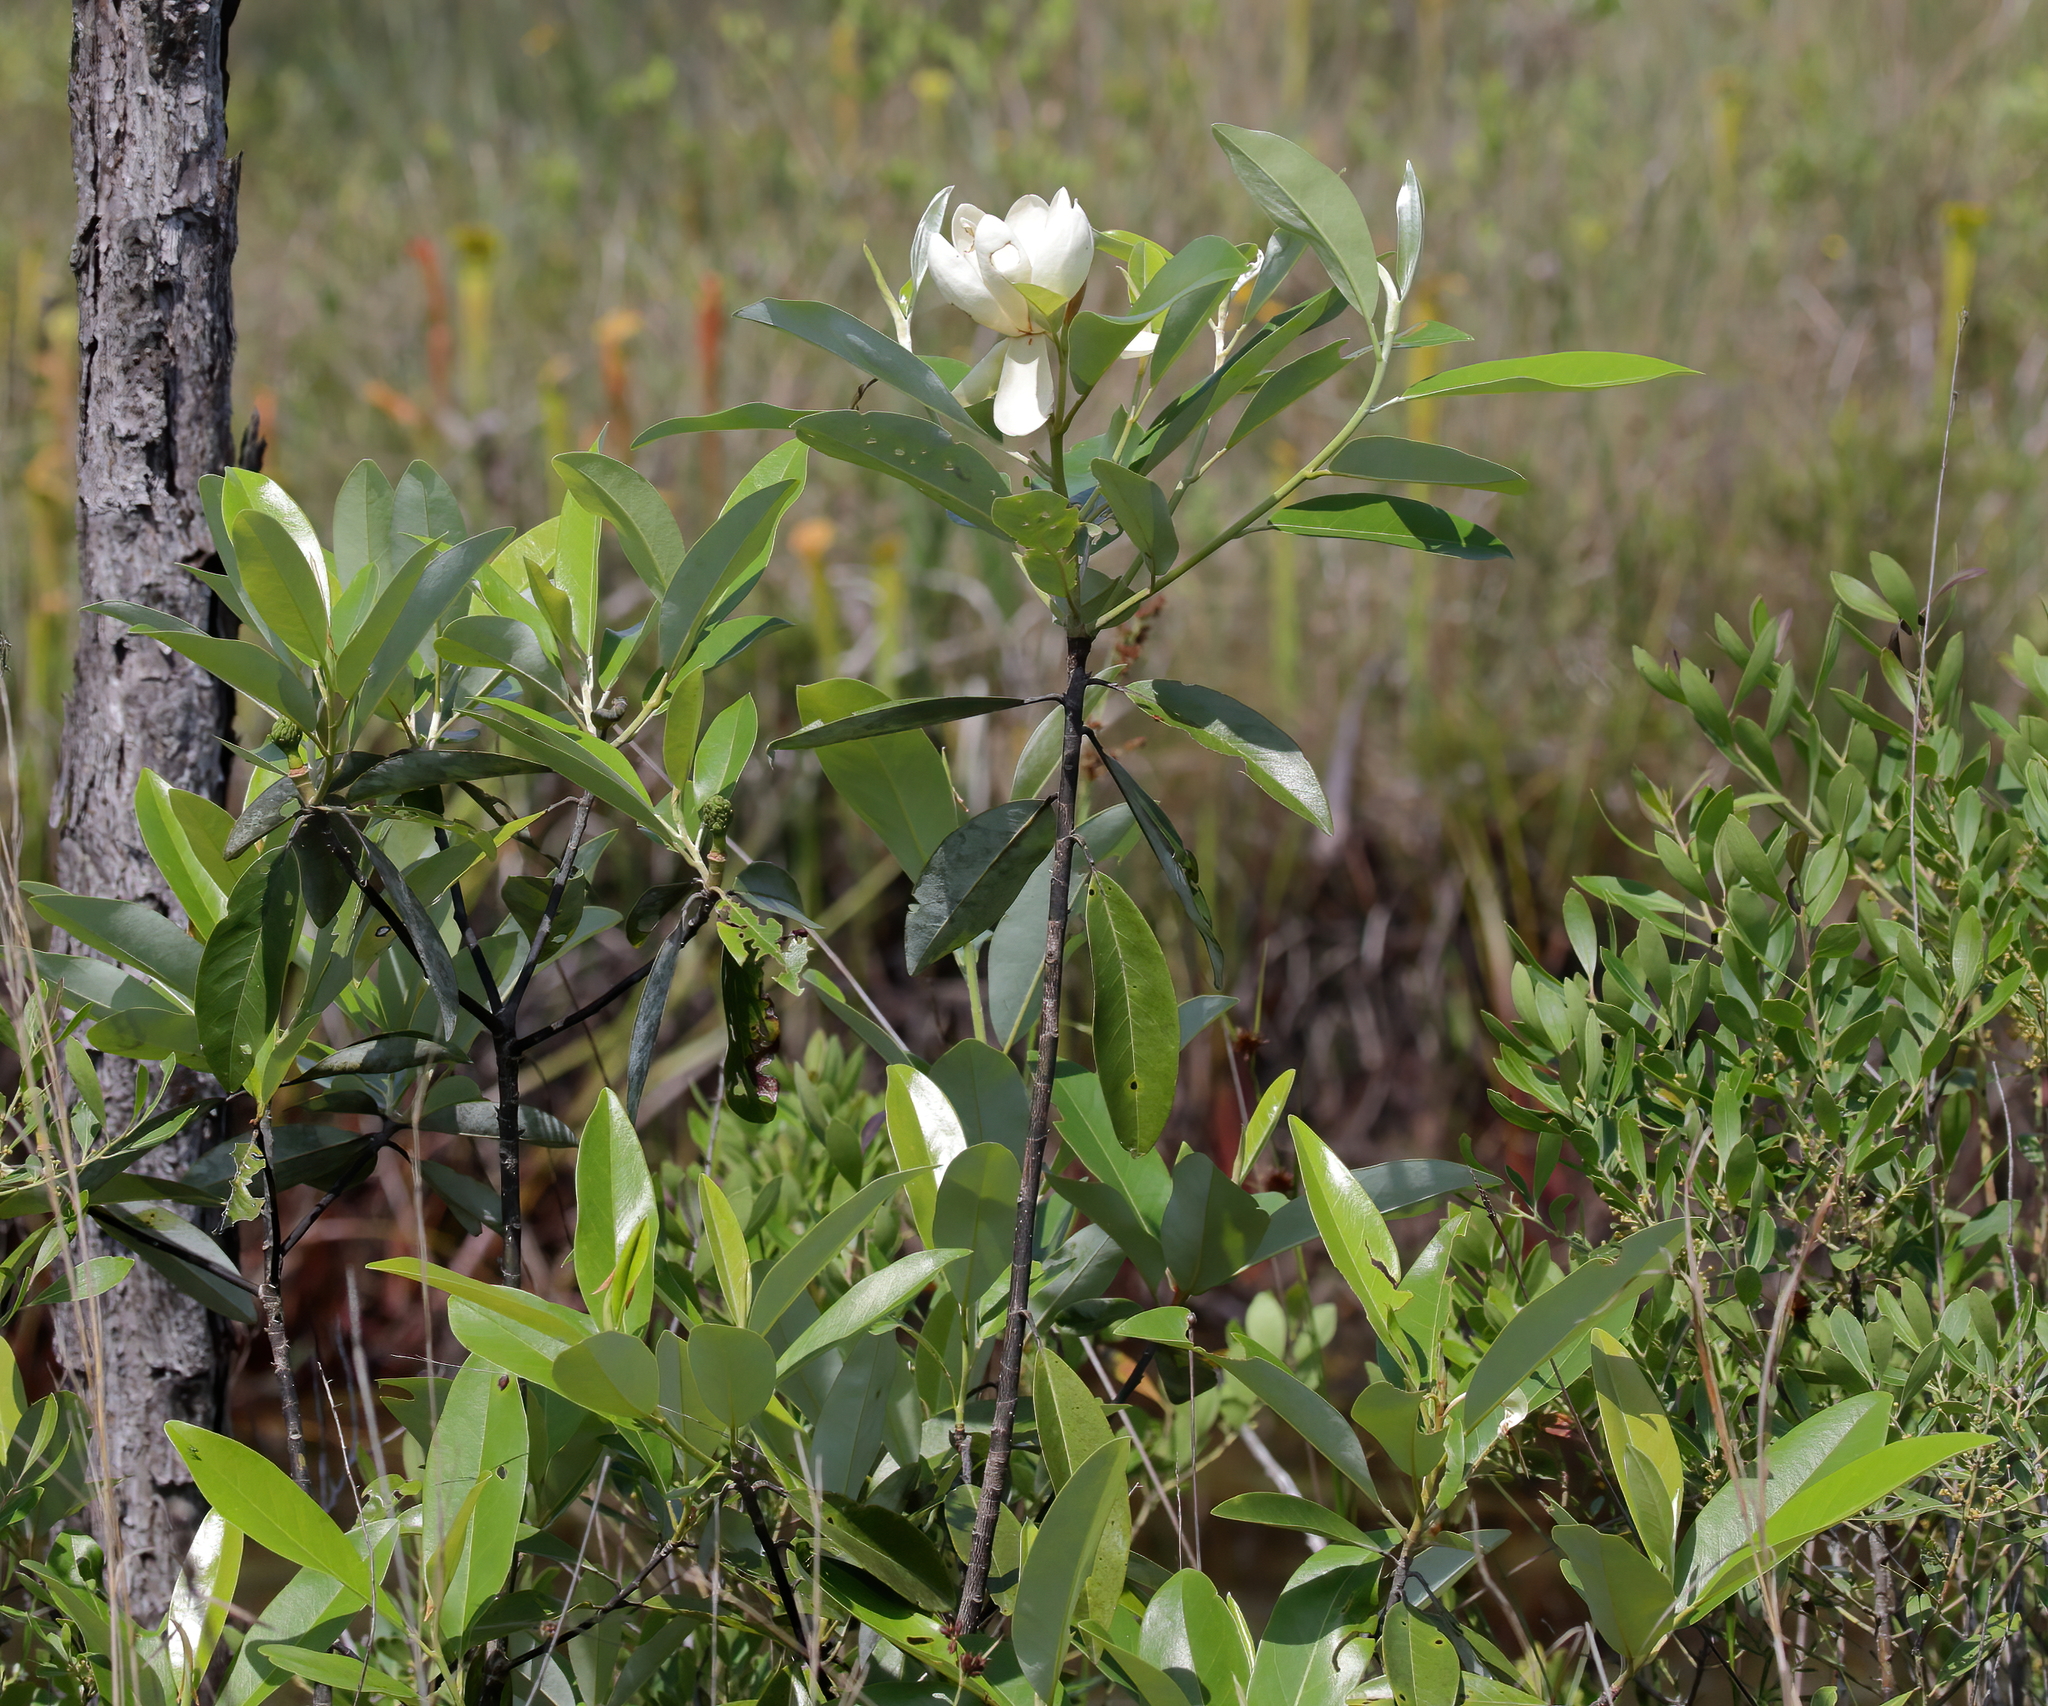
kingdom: Plantae
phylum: Tracheophyta
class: Magnoliopsida
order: Magnoliales
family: Magnoliaceae
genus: Magnolia
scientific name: Magnolia virginiana
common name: Swamp bay
